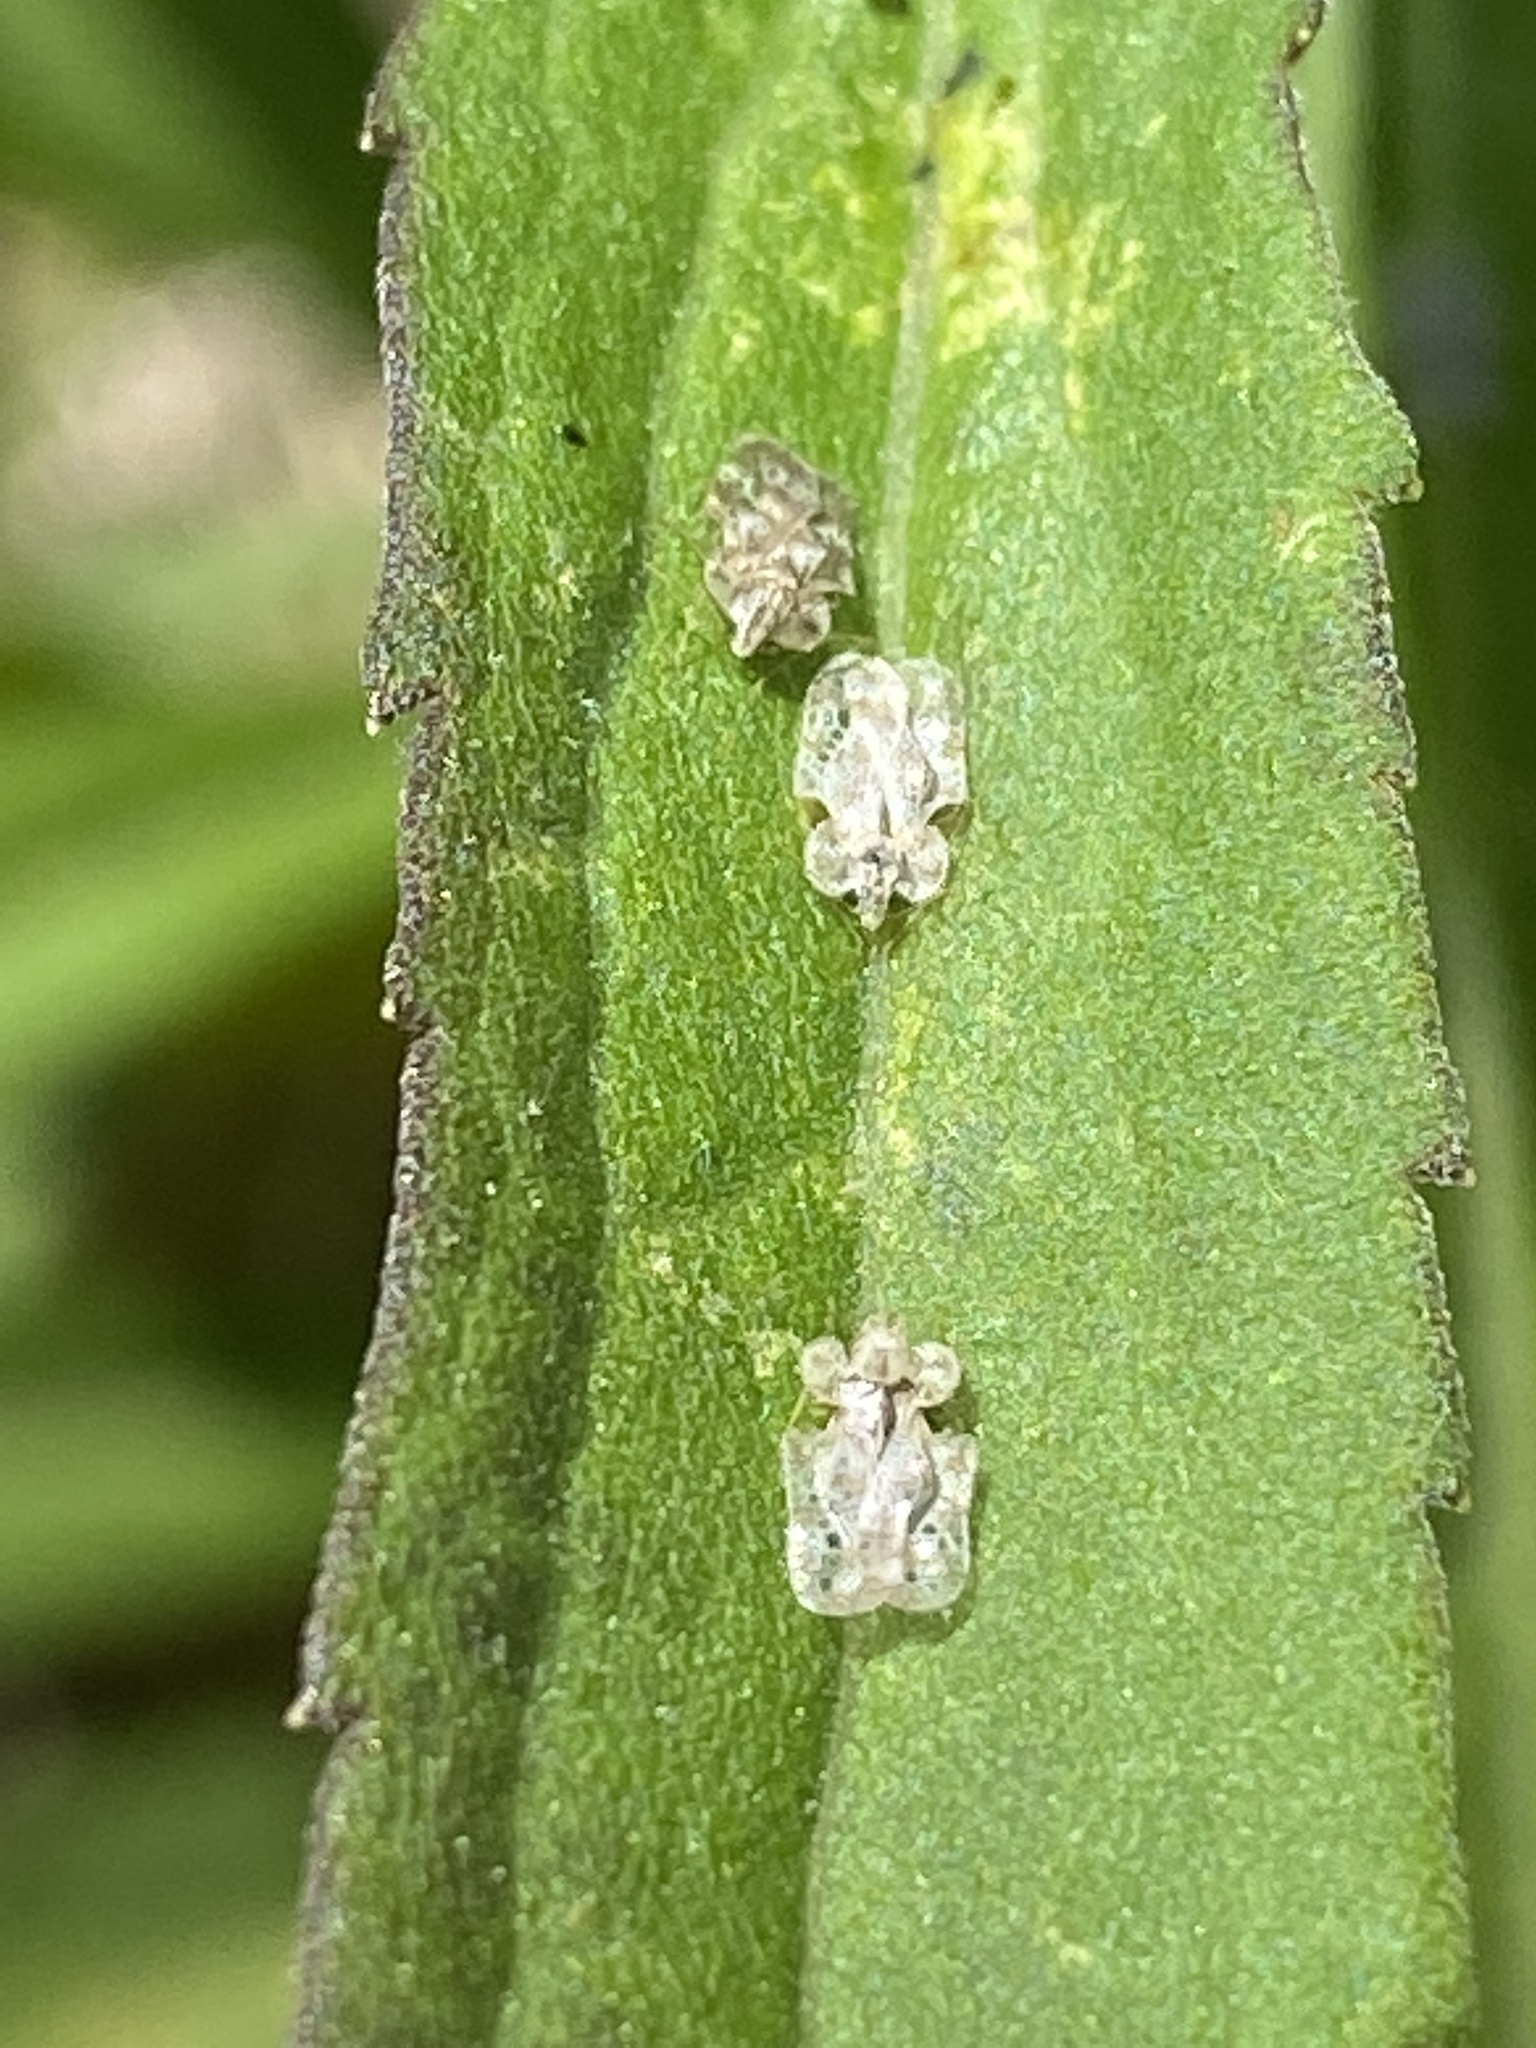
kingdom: Animalia
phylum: Arthropoda
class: Insecta
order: Hemiptera
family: Tingidae
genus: Corythucha
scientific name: Corythucha marmorata
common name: Chrysanthemum lace bug
